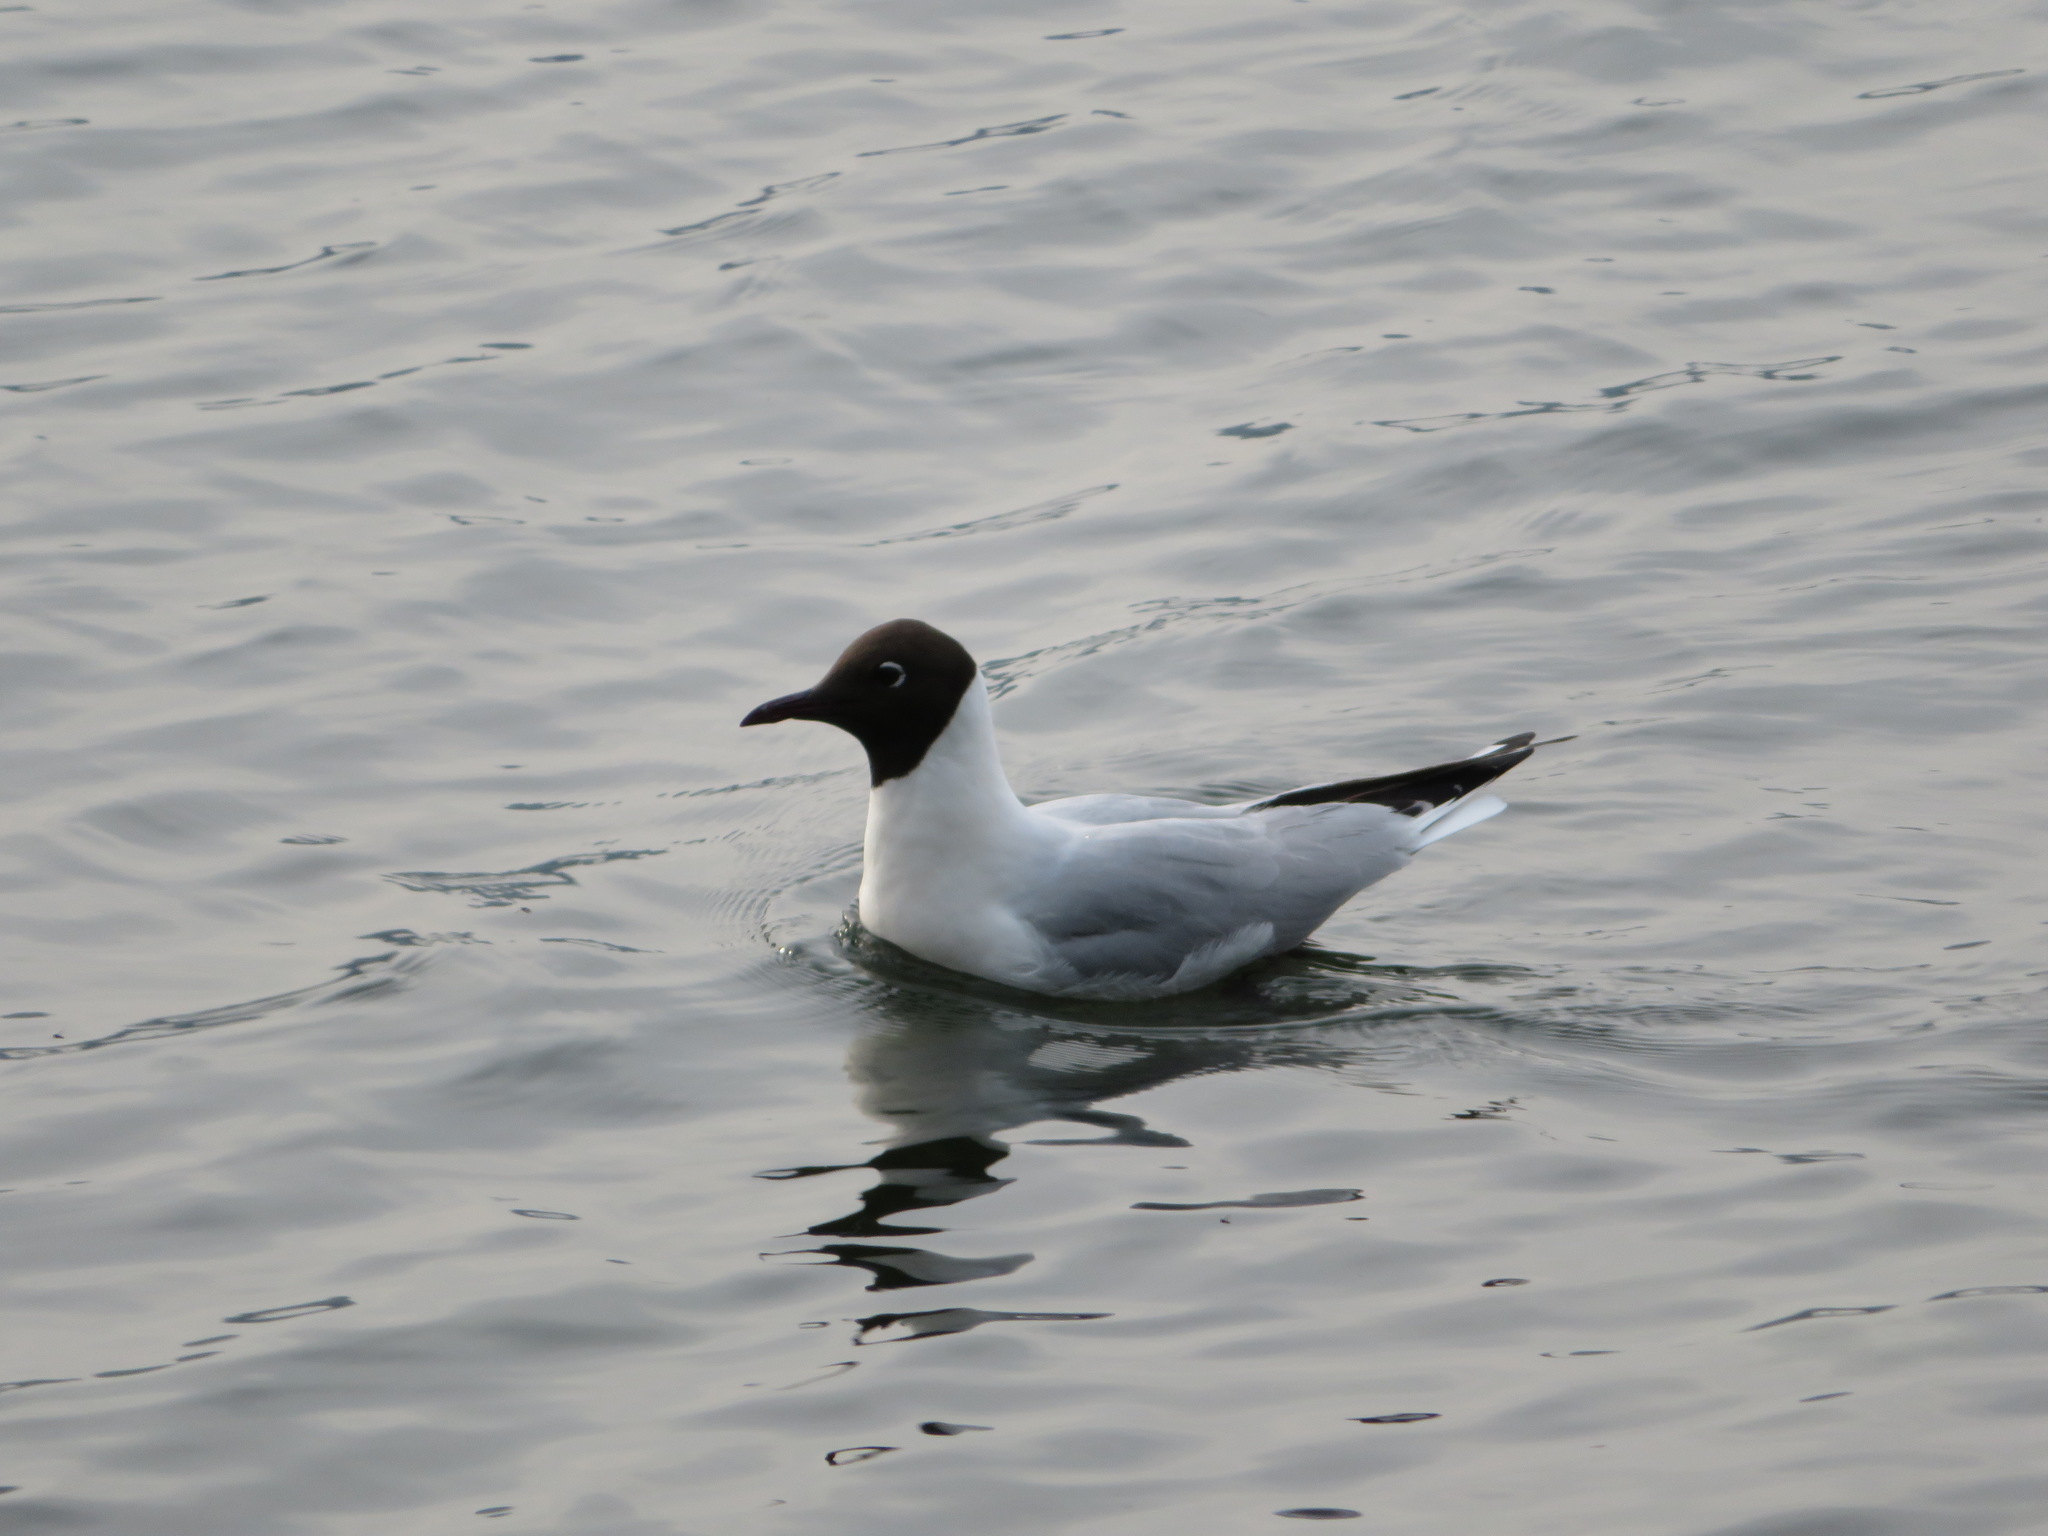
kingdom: Animalia
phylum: Chordata
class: Aves
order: Charadriiformes
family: Laridae
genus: Chroicocephalus
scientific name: Chroicocephalus ridibundus
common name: Black-headed gull
